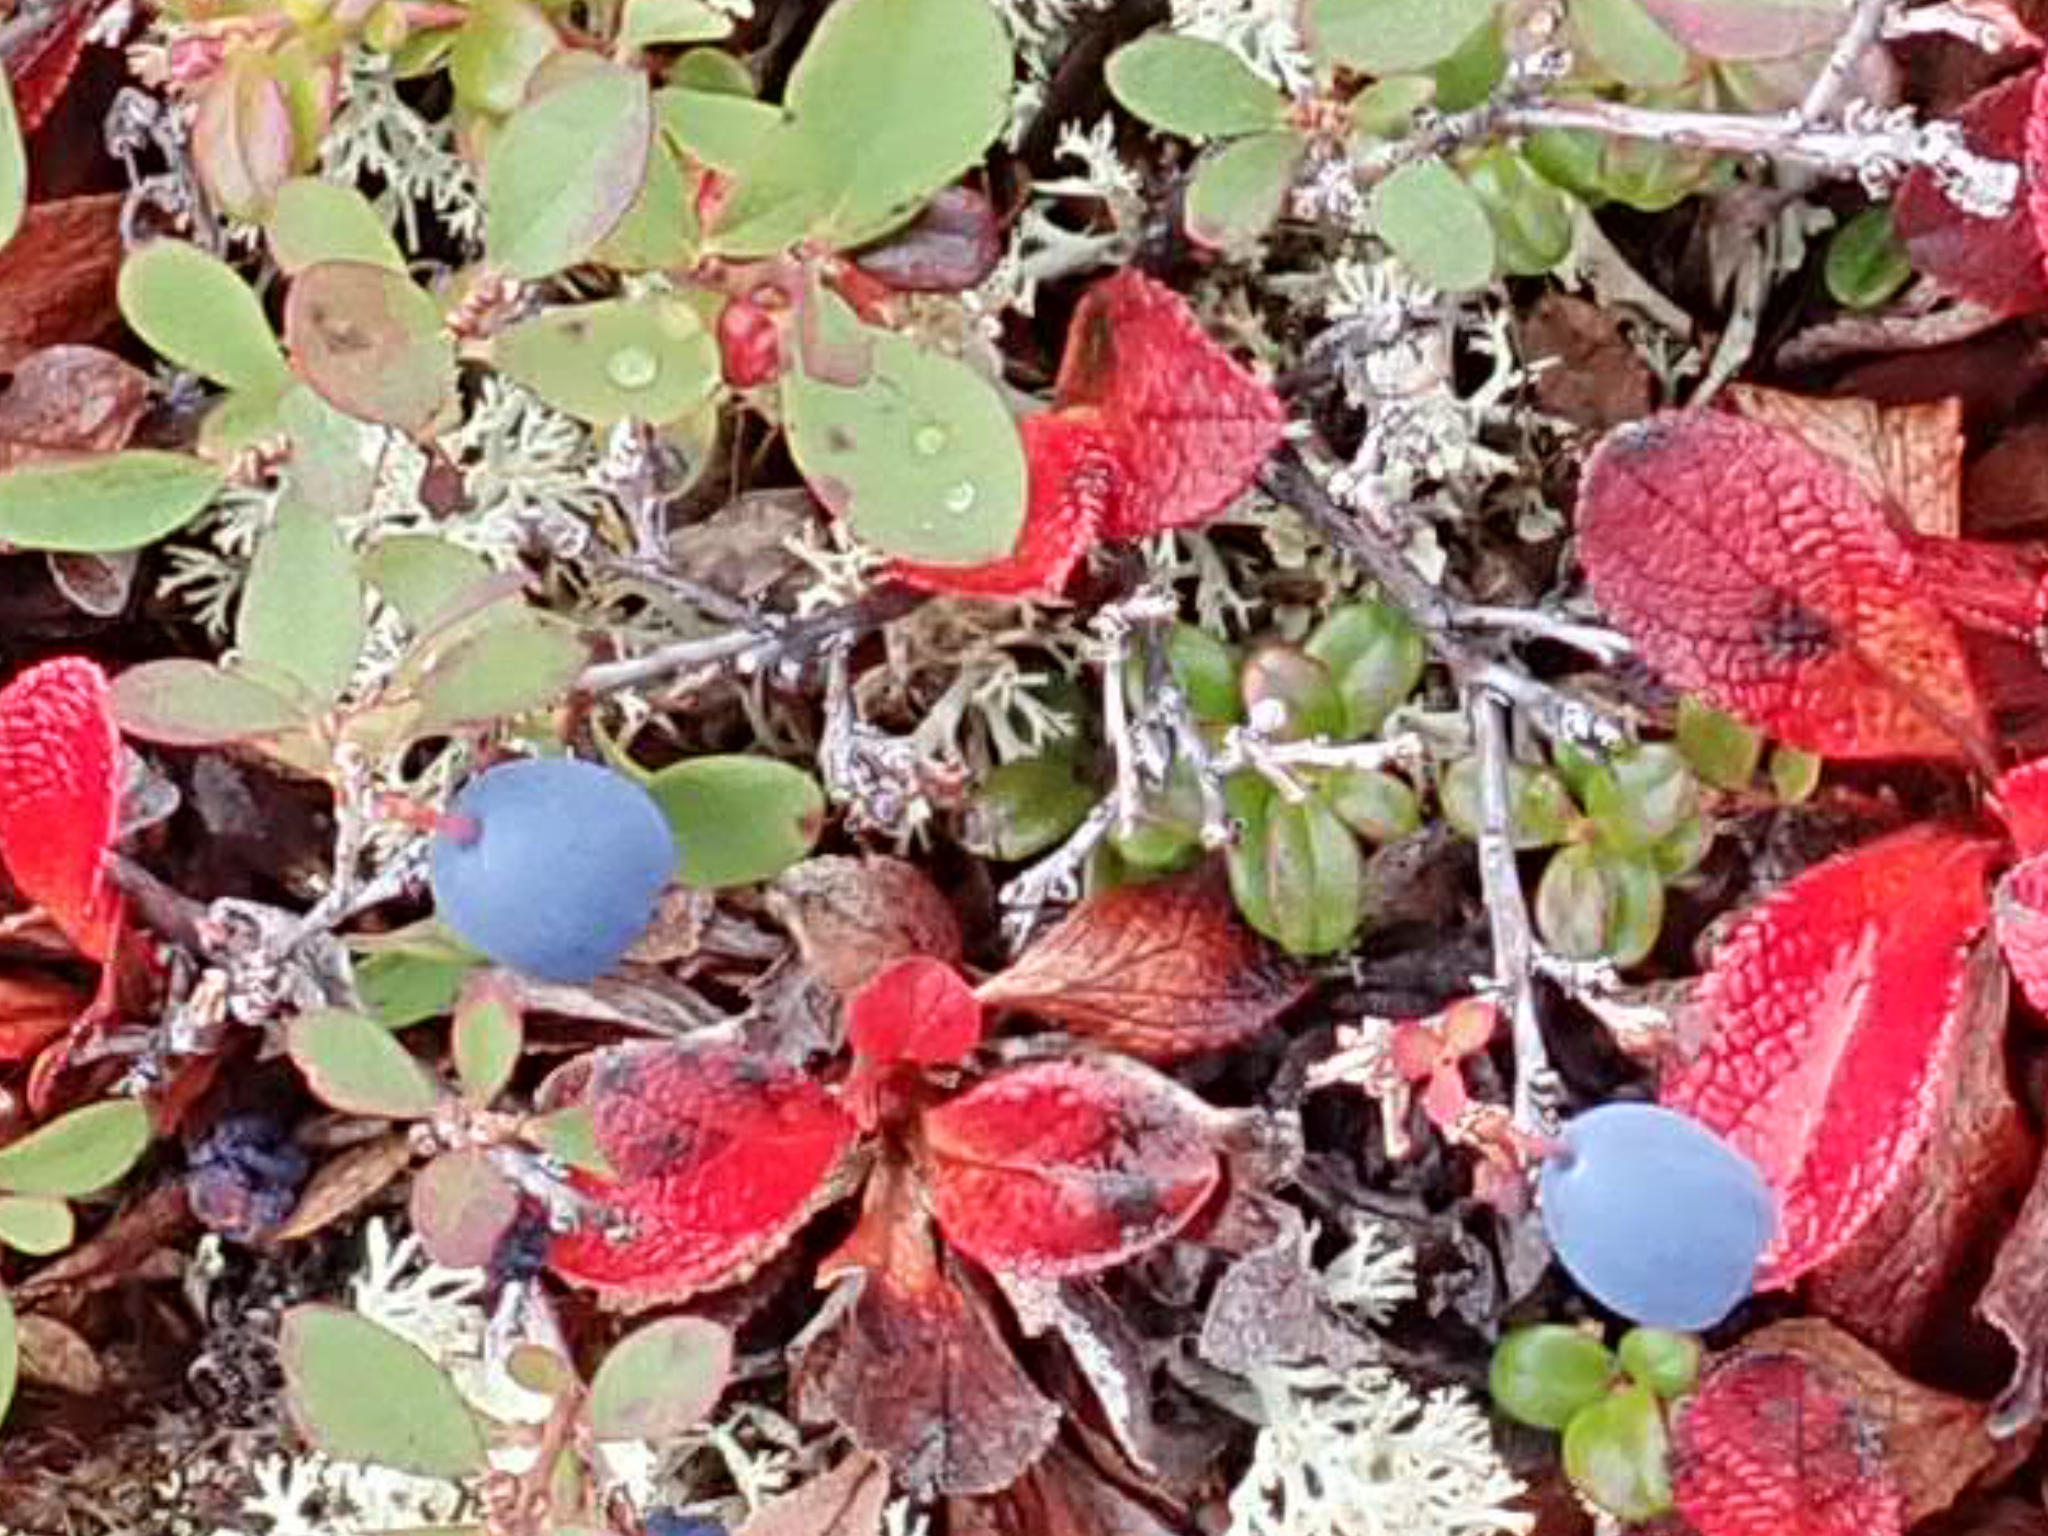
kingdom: Plantae
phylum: Tracheophyta
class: Magnoliopsida
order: Ericales
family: Ericaceae
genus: Vaccinium
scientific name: Vaccinium uliginosum
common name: Bog bilberry
